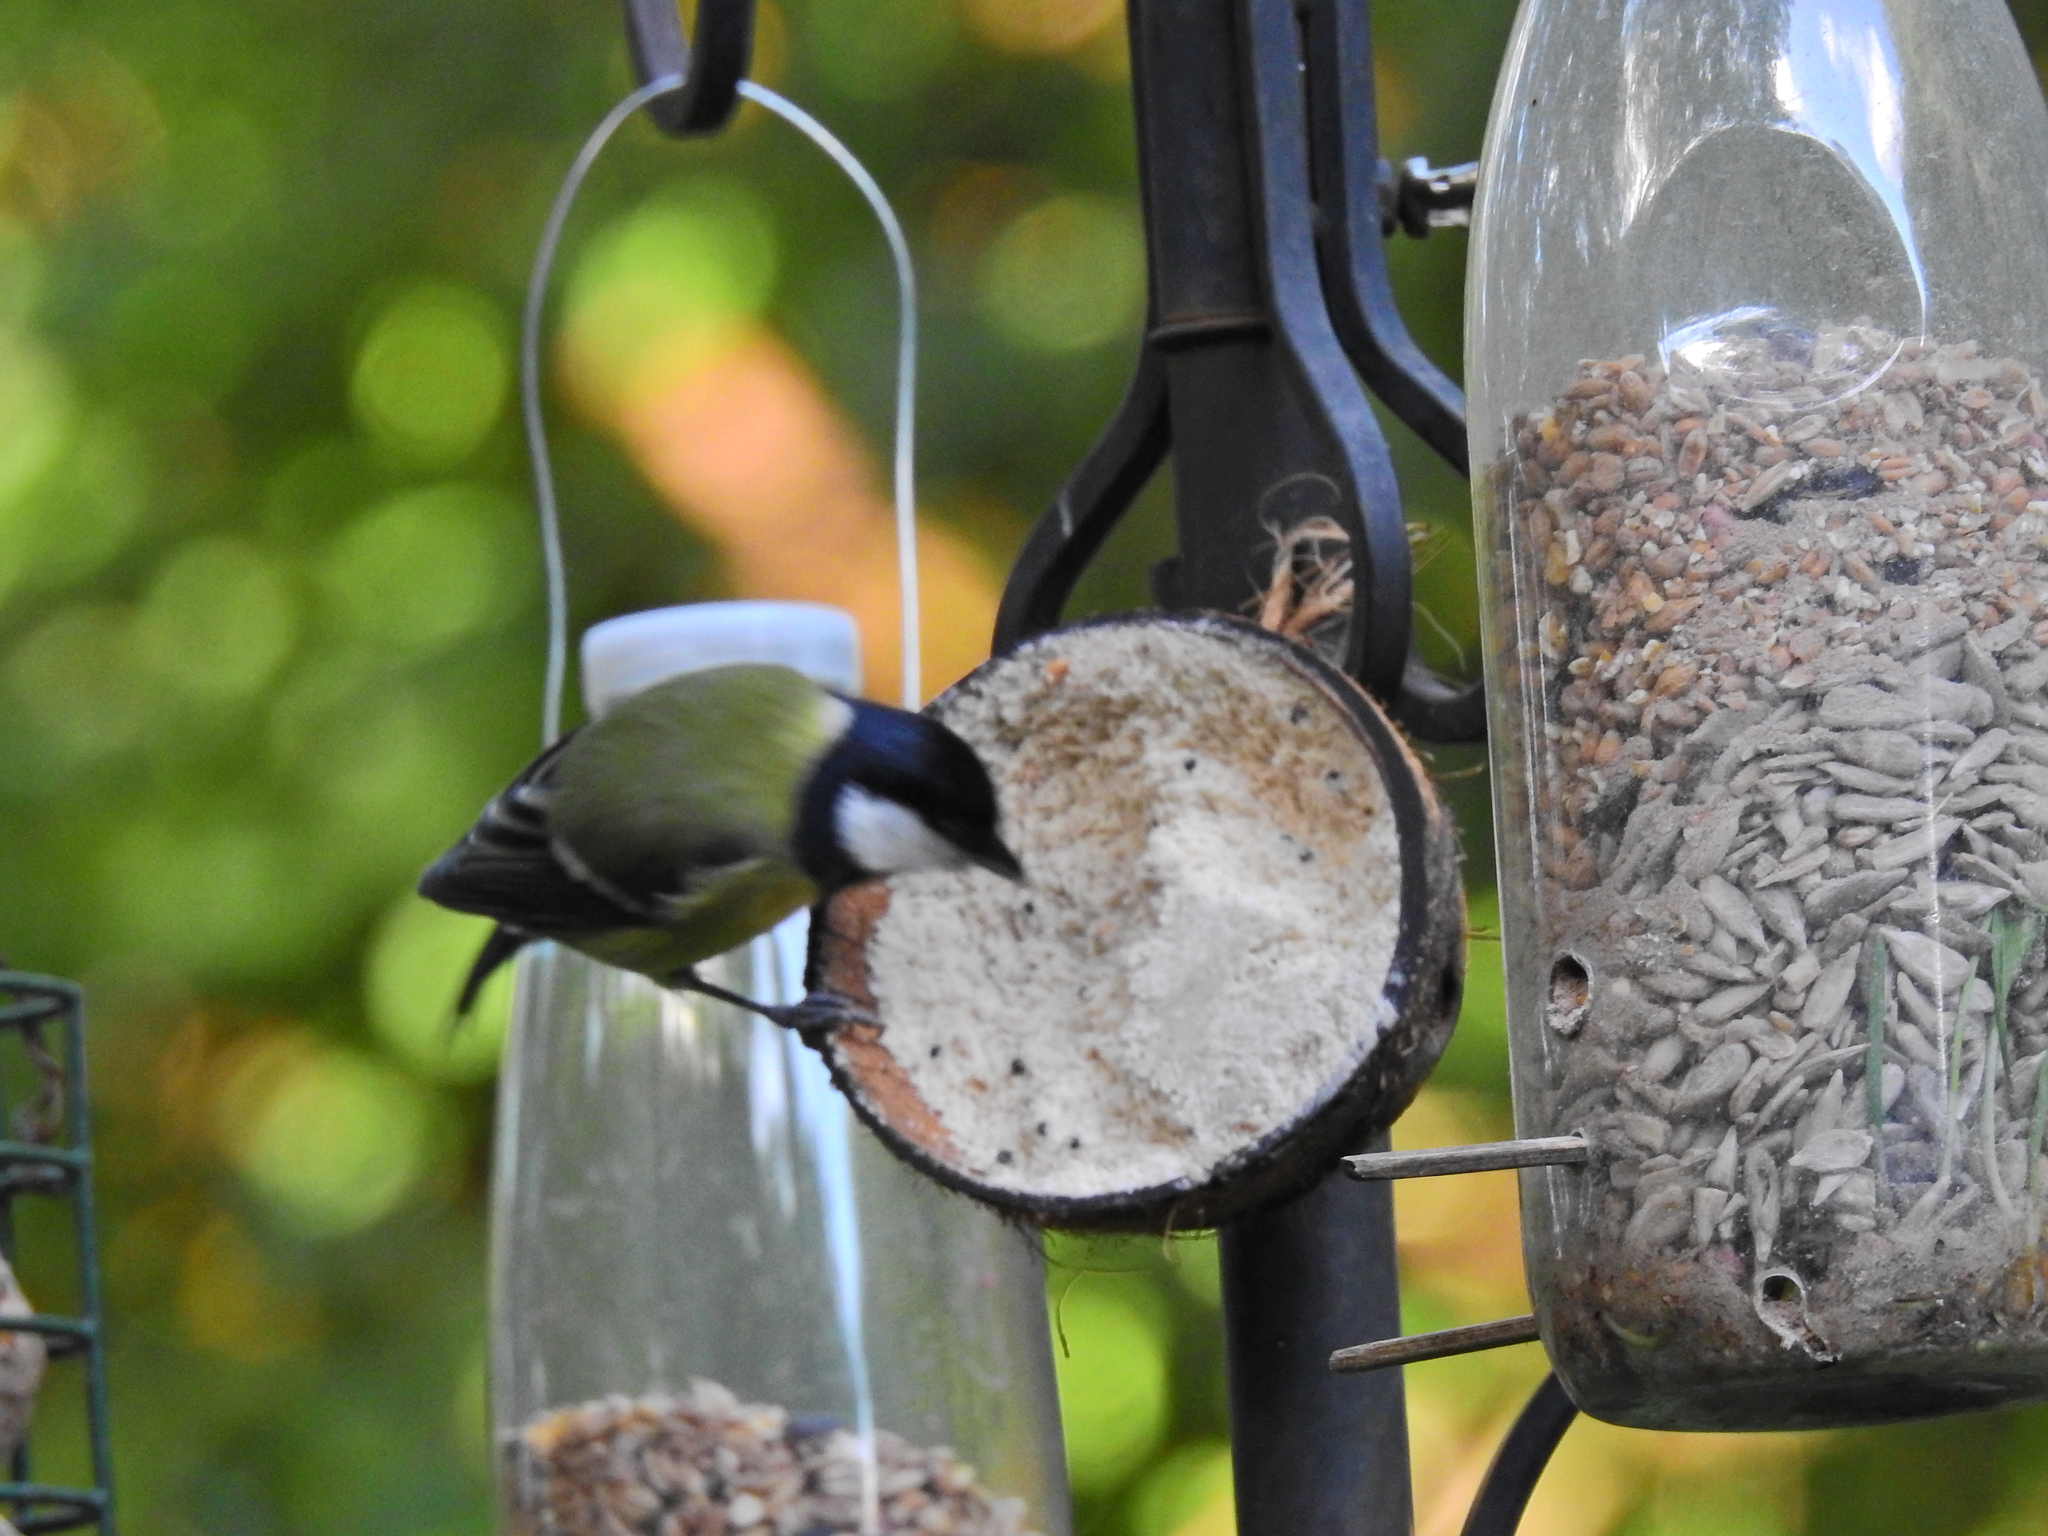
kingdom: Animalia
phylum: Chordata
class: Aves
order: Passeriformes
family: Paridae
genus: Parus
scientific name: Parus major
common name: Great tit
